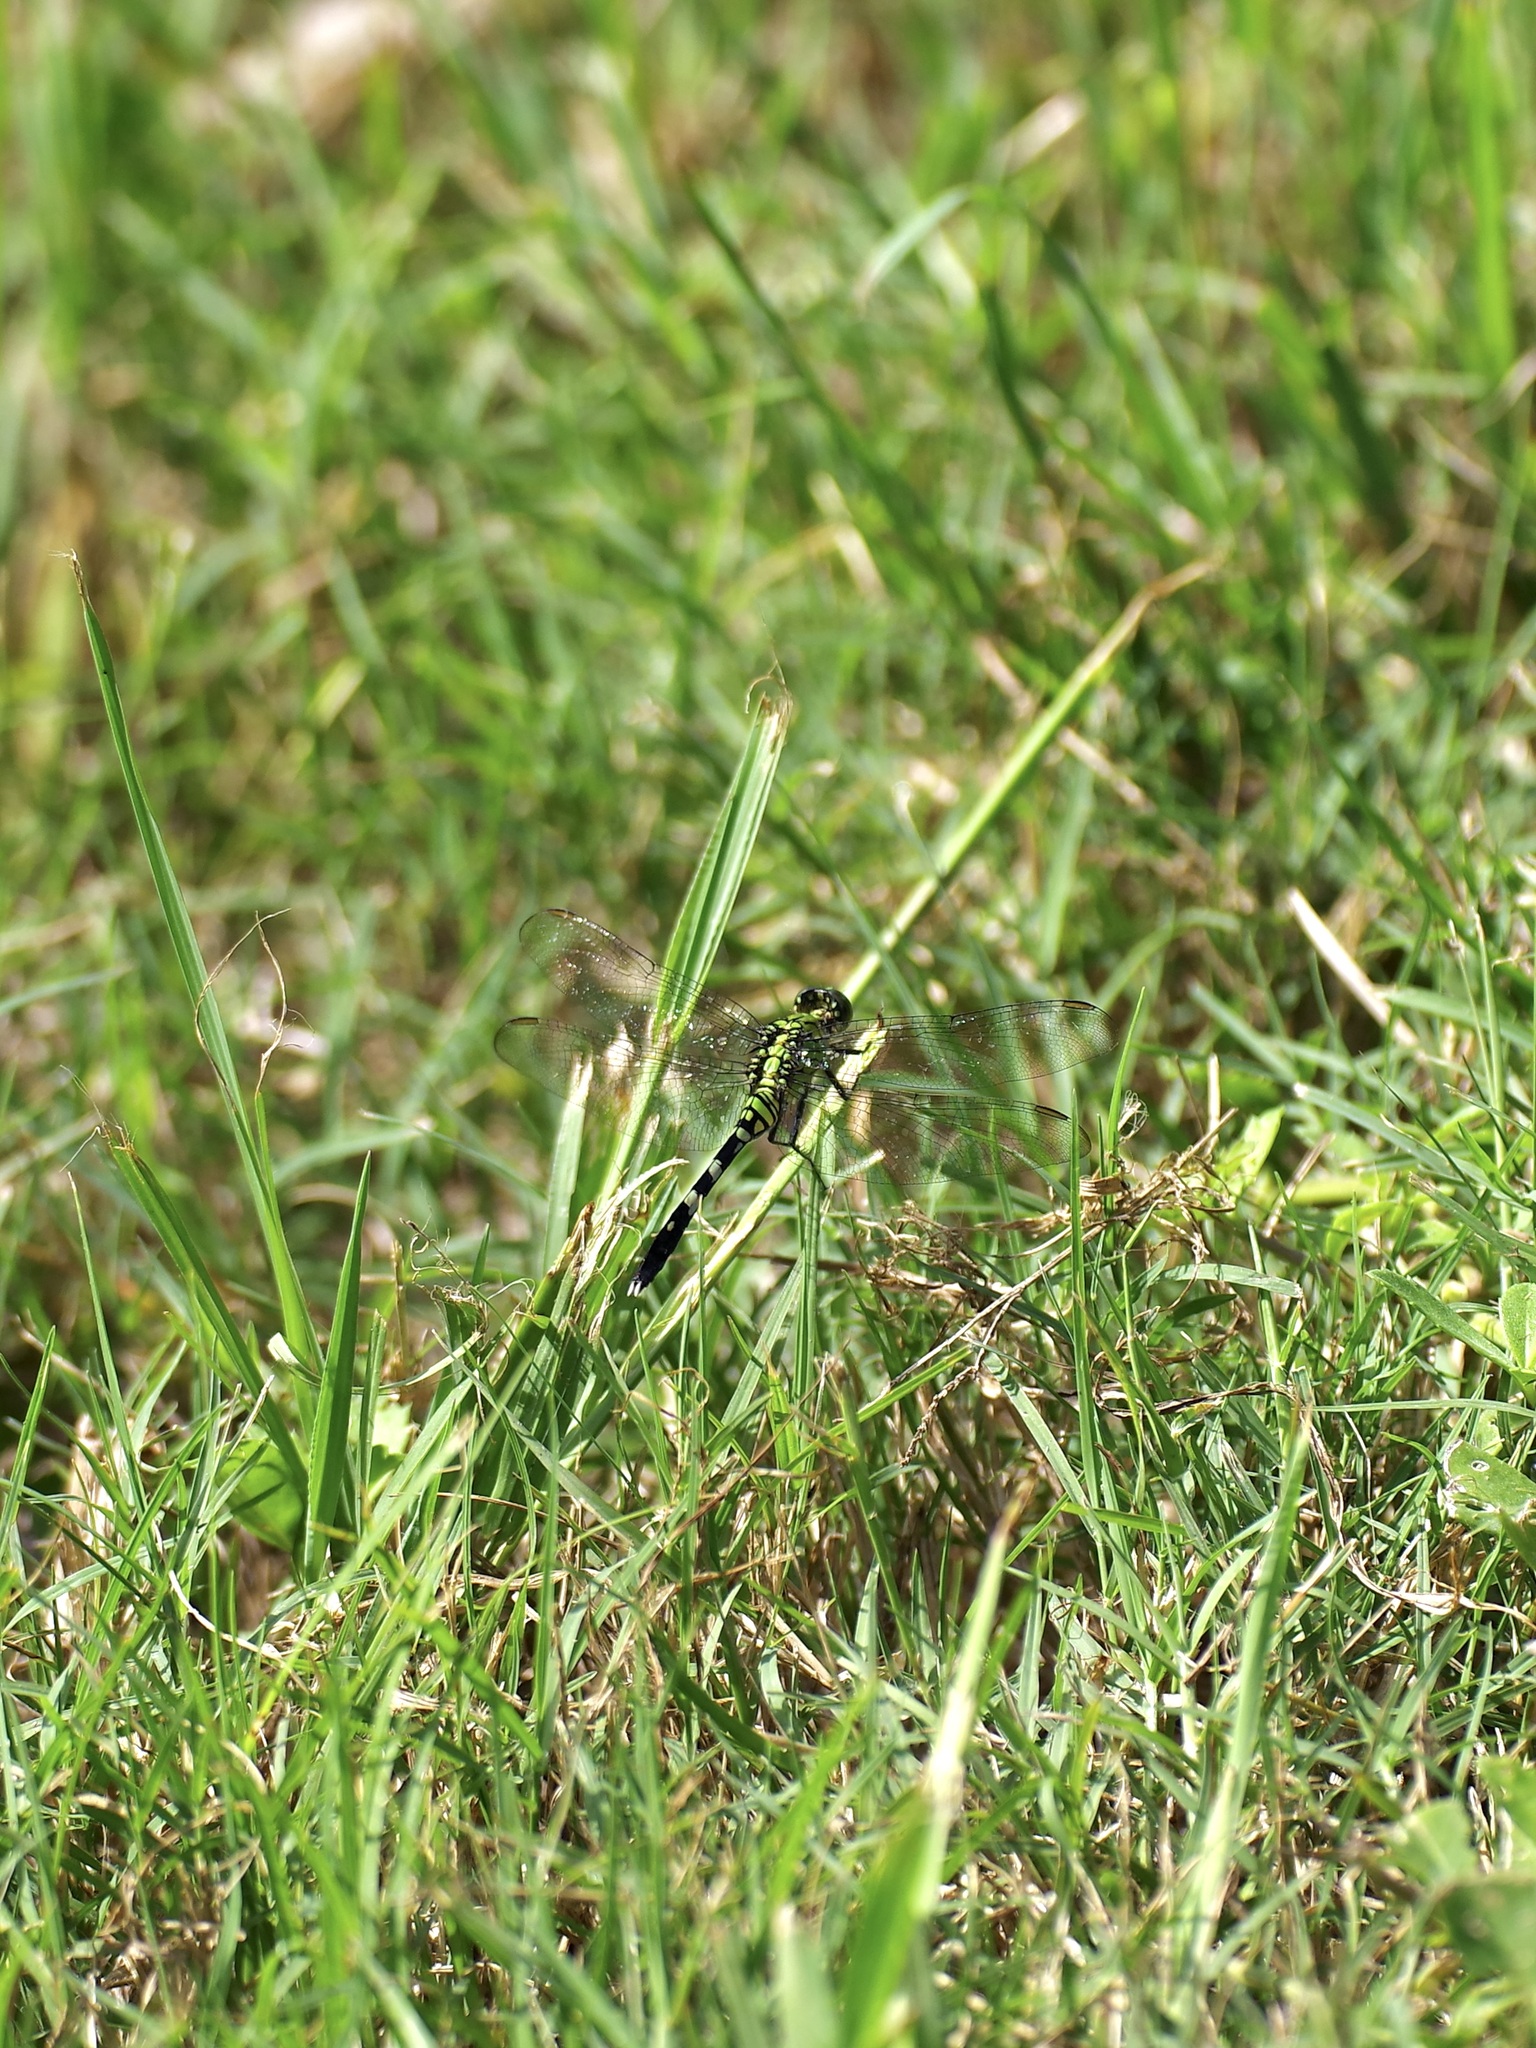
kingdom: Animalia
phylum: Arthropoda
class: Insecta
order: Odonata
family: Libellulidae
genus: Erythemis
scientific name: Erythemis simplicicollis
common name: Eastern pondhawk
